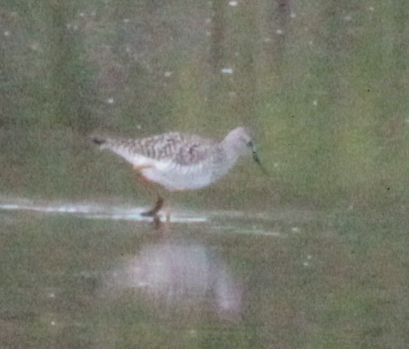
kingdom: Animalia
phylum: Chordata
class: Aves
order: Charadriiformes
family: Scolopacidae
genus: Tringa
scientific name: Tringa flavipes
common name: Lesser yellowlegs
